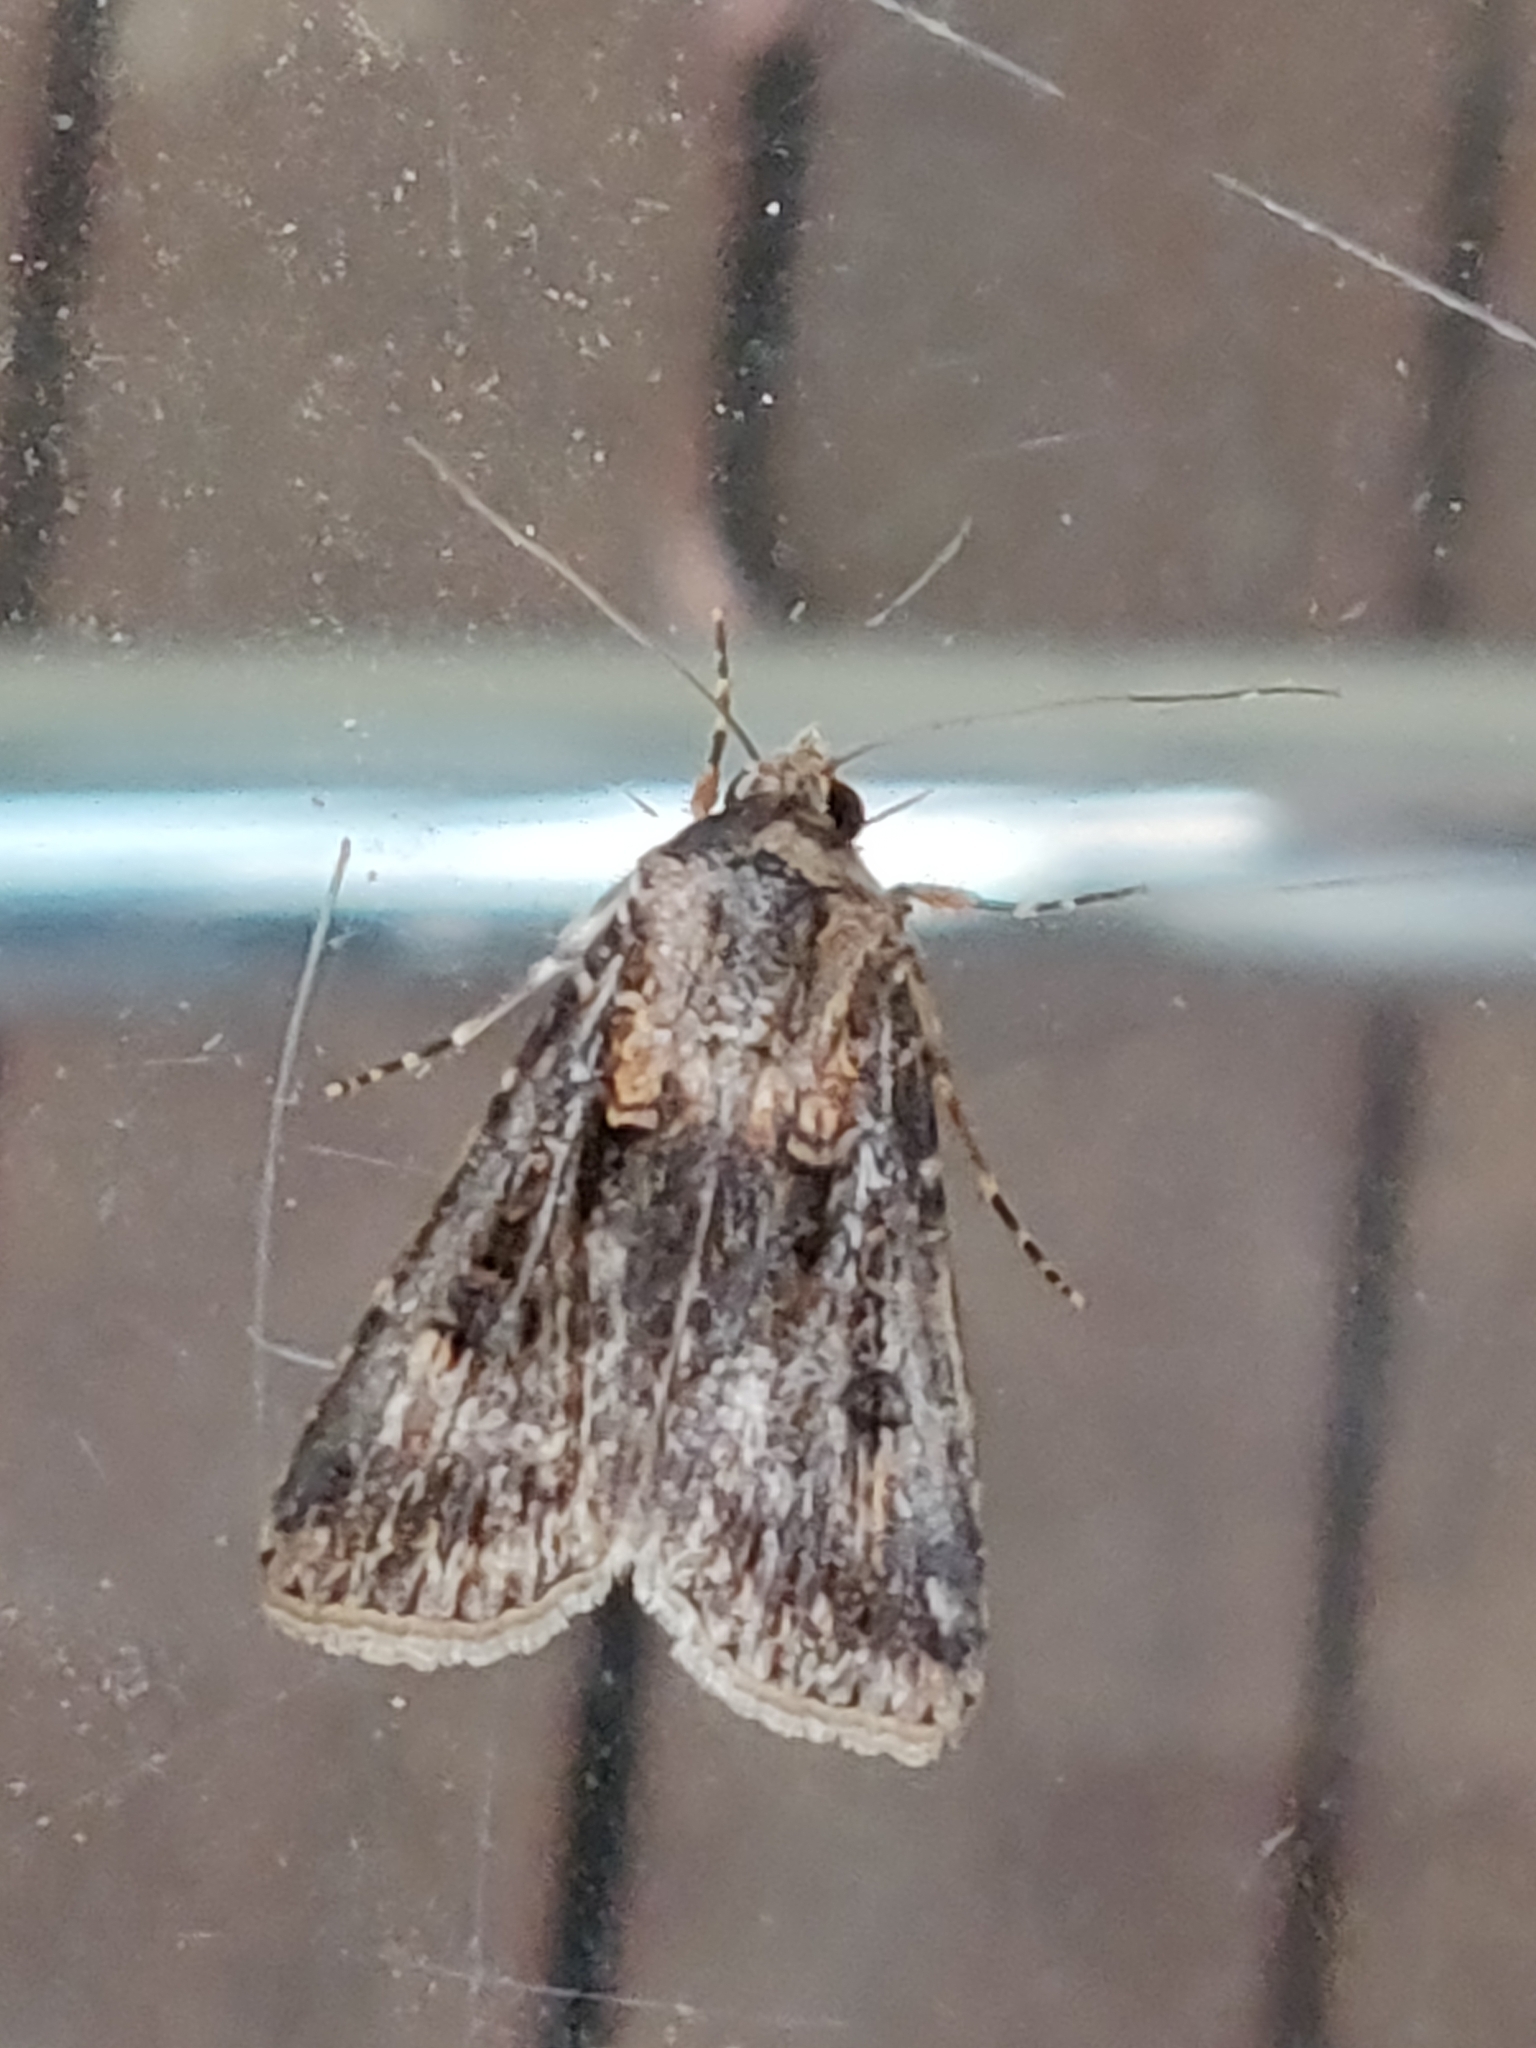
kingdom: Animalia
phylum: Arthropoda
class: Insecta
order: Lepidoptera
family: Noctuidae
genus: Agrotis
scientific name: Agrotis munda
